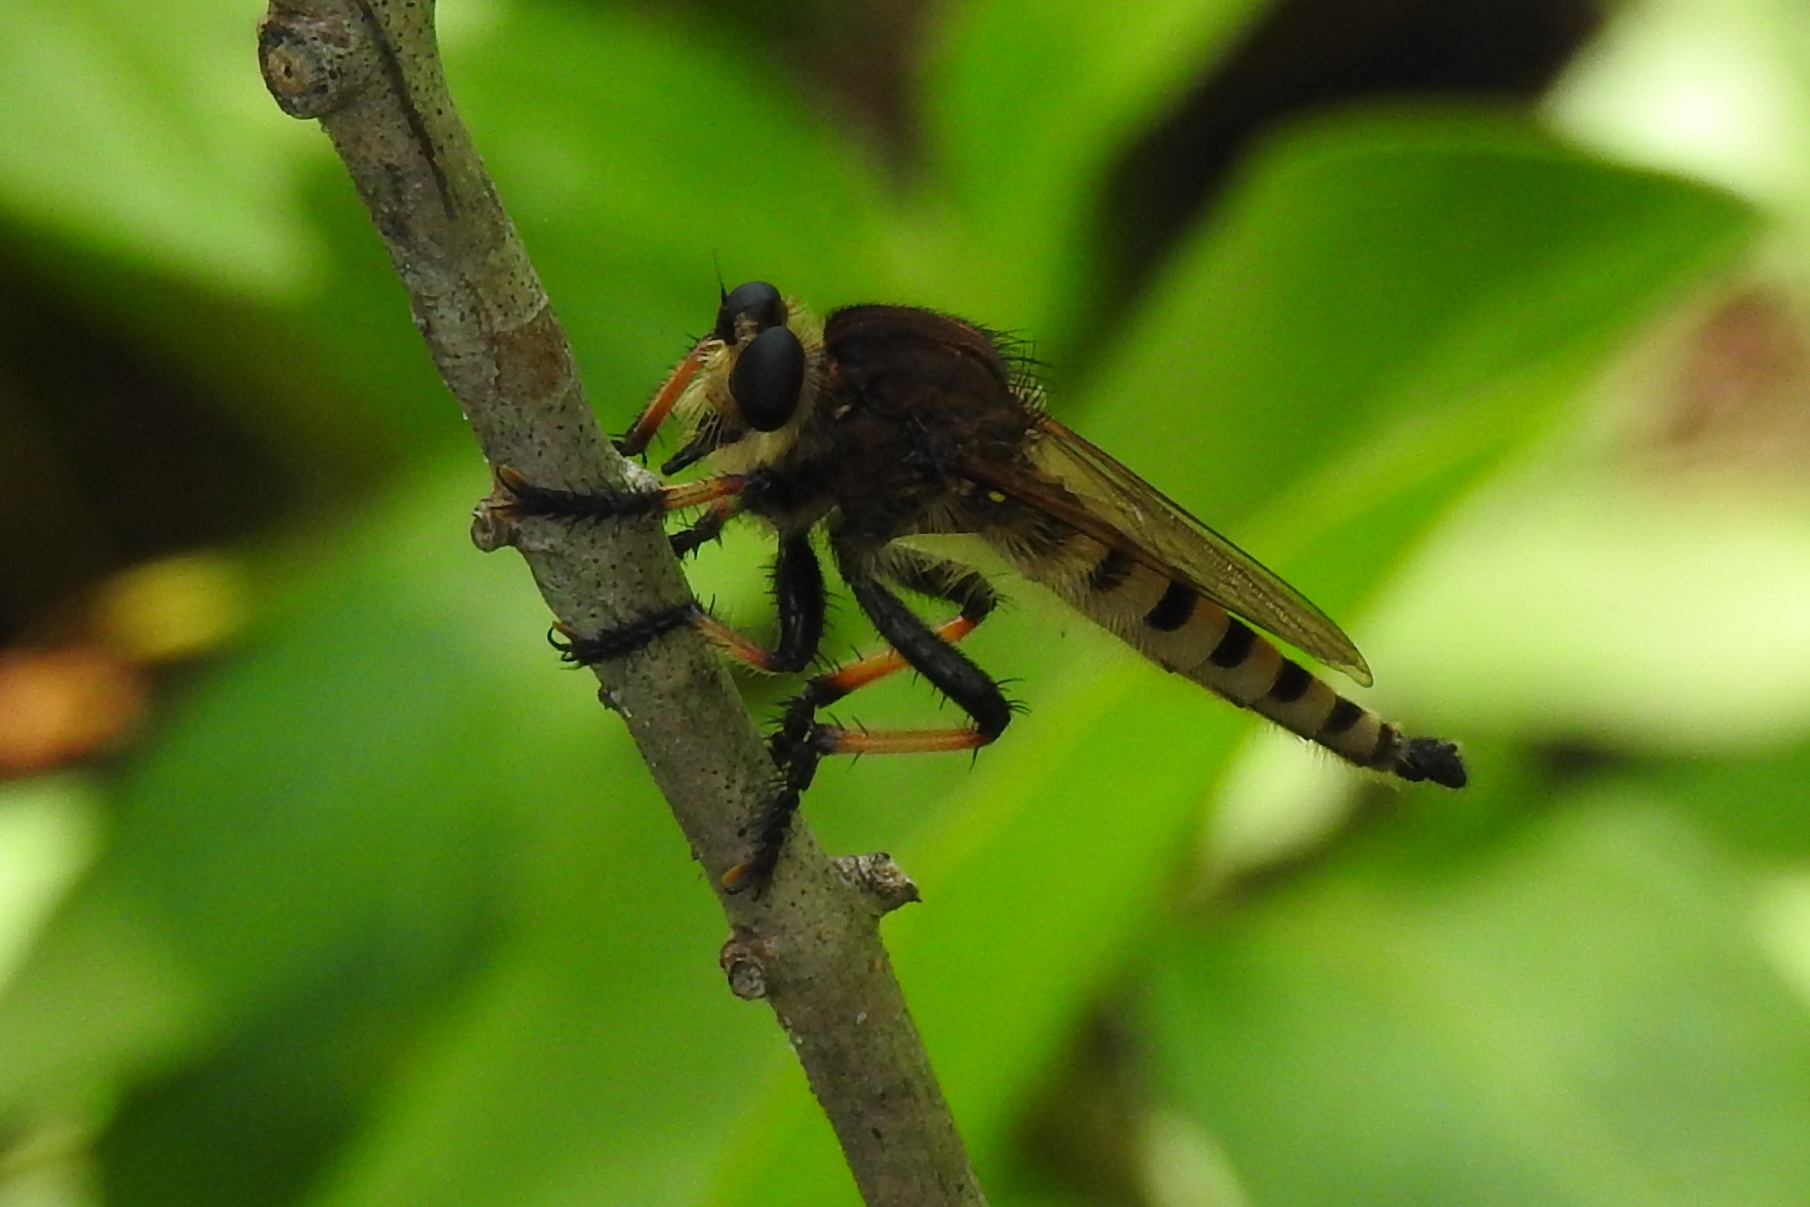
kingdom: Animalia
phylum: Arthropoda
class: Insecta
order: Diptera
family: Asilidae
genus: Promachus
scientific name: Promachus rufipes
